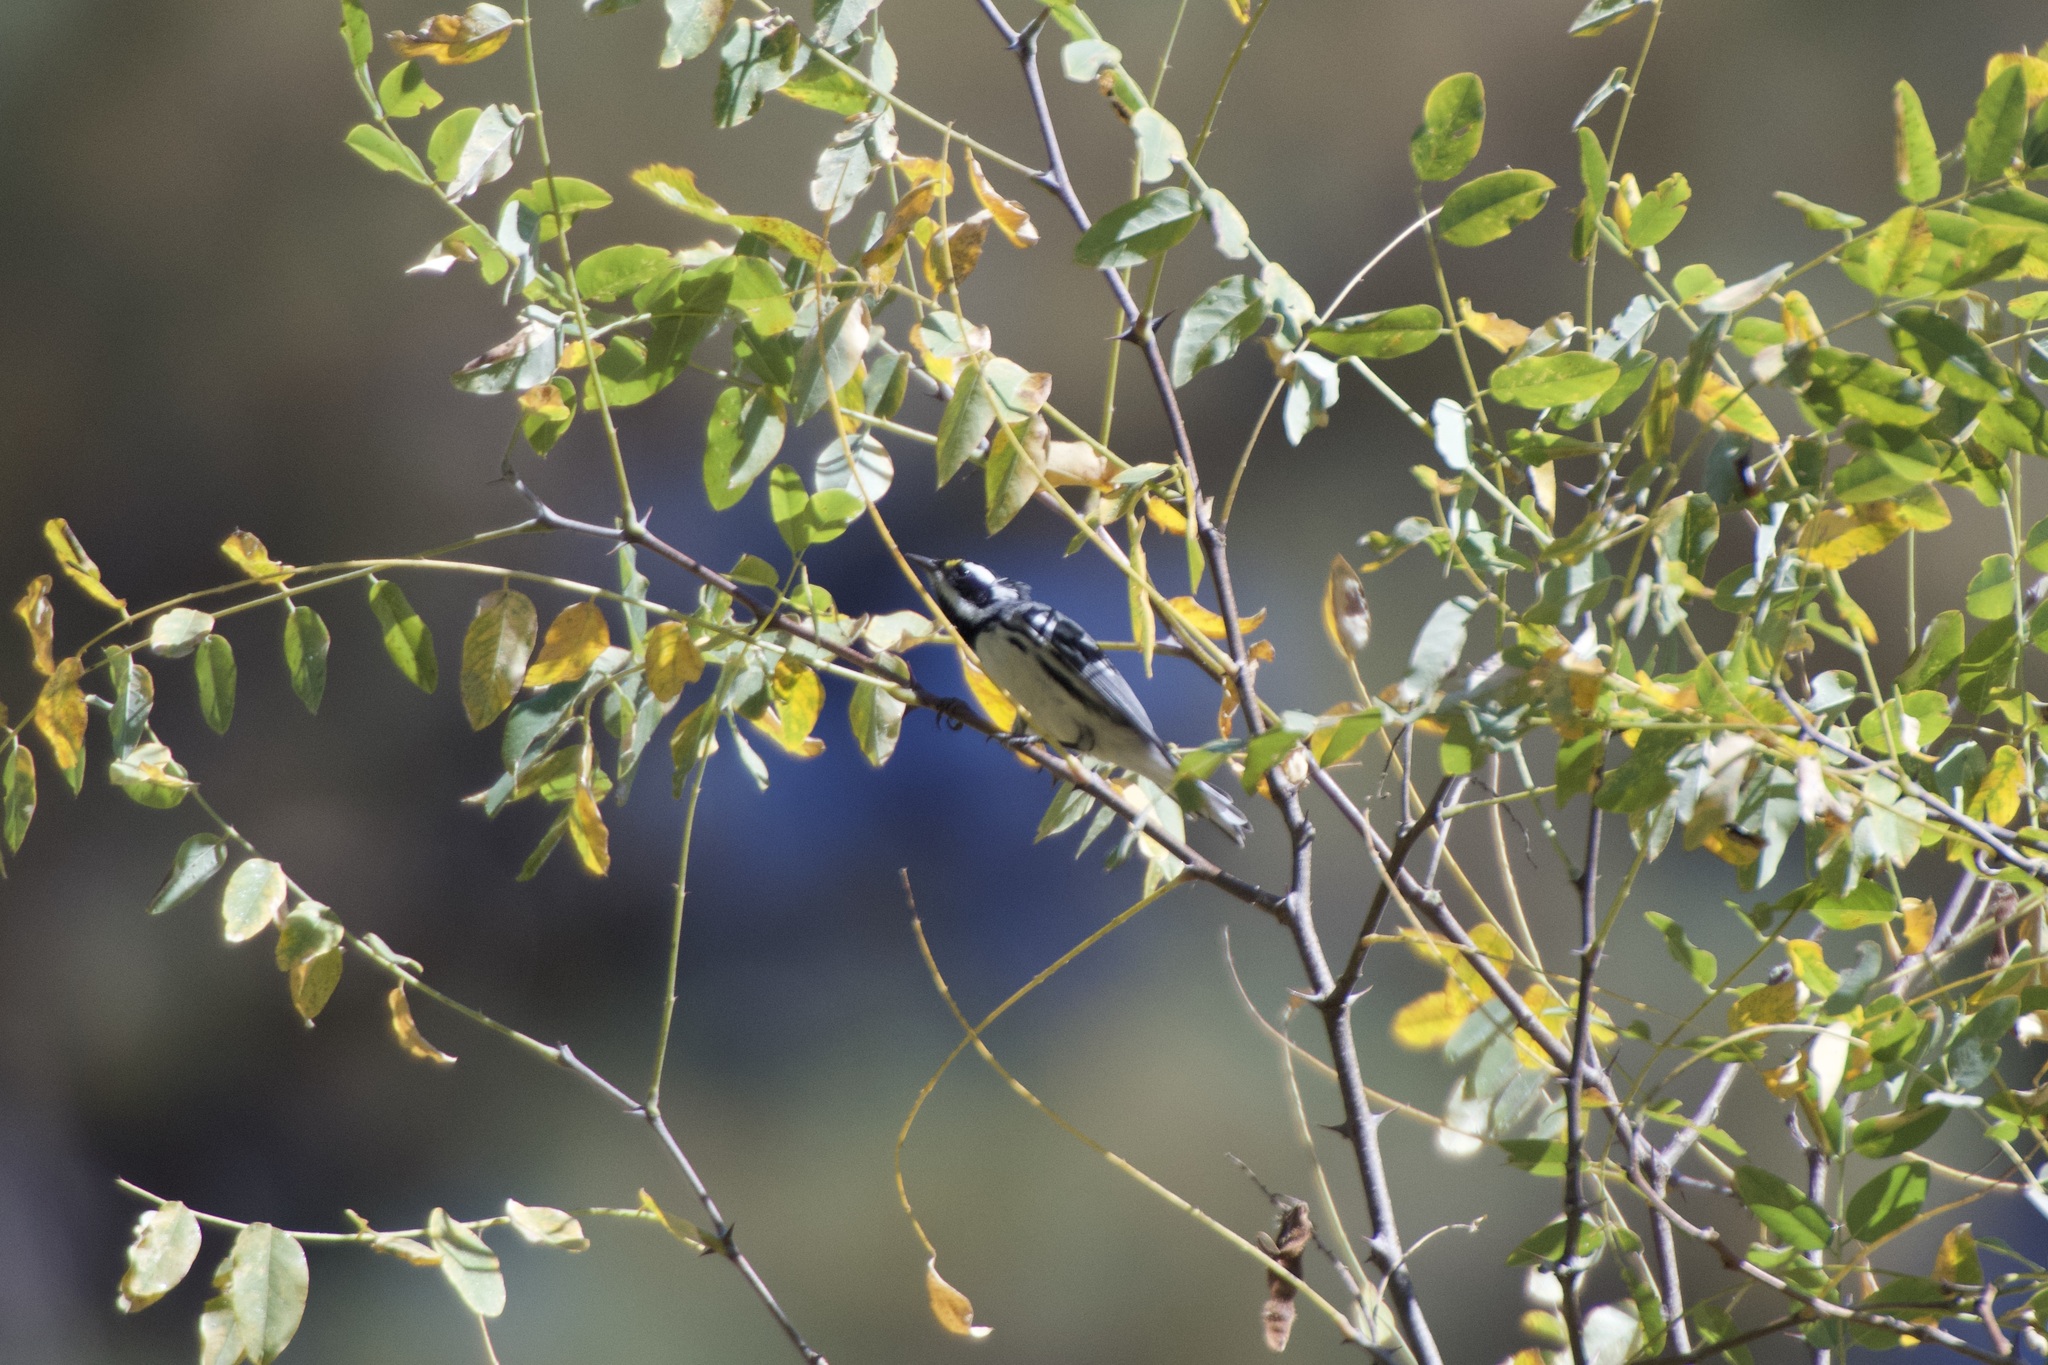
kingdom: Animalia
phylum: Chordata
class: Aves
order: Passeriformes
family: Parulidae
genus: Setophaga
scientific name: Setophaga nigrescens
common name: Black-throated gray warbler
